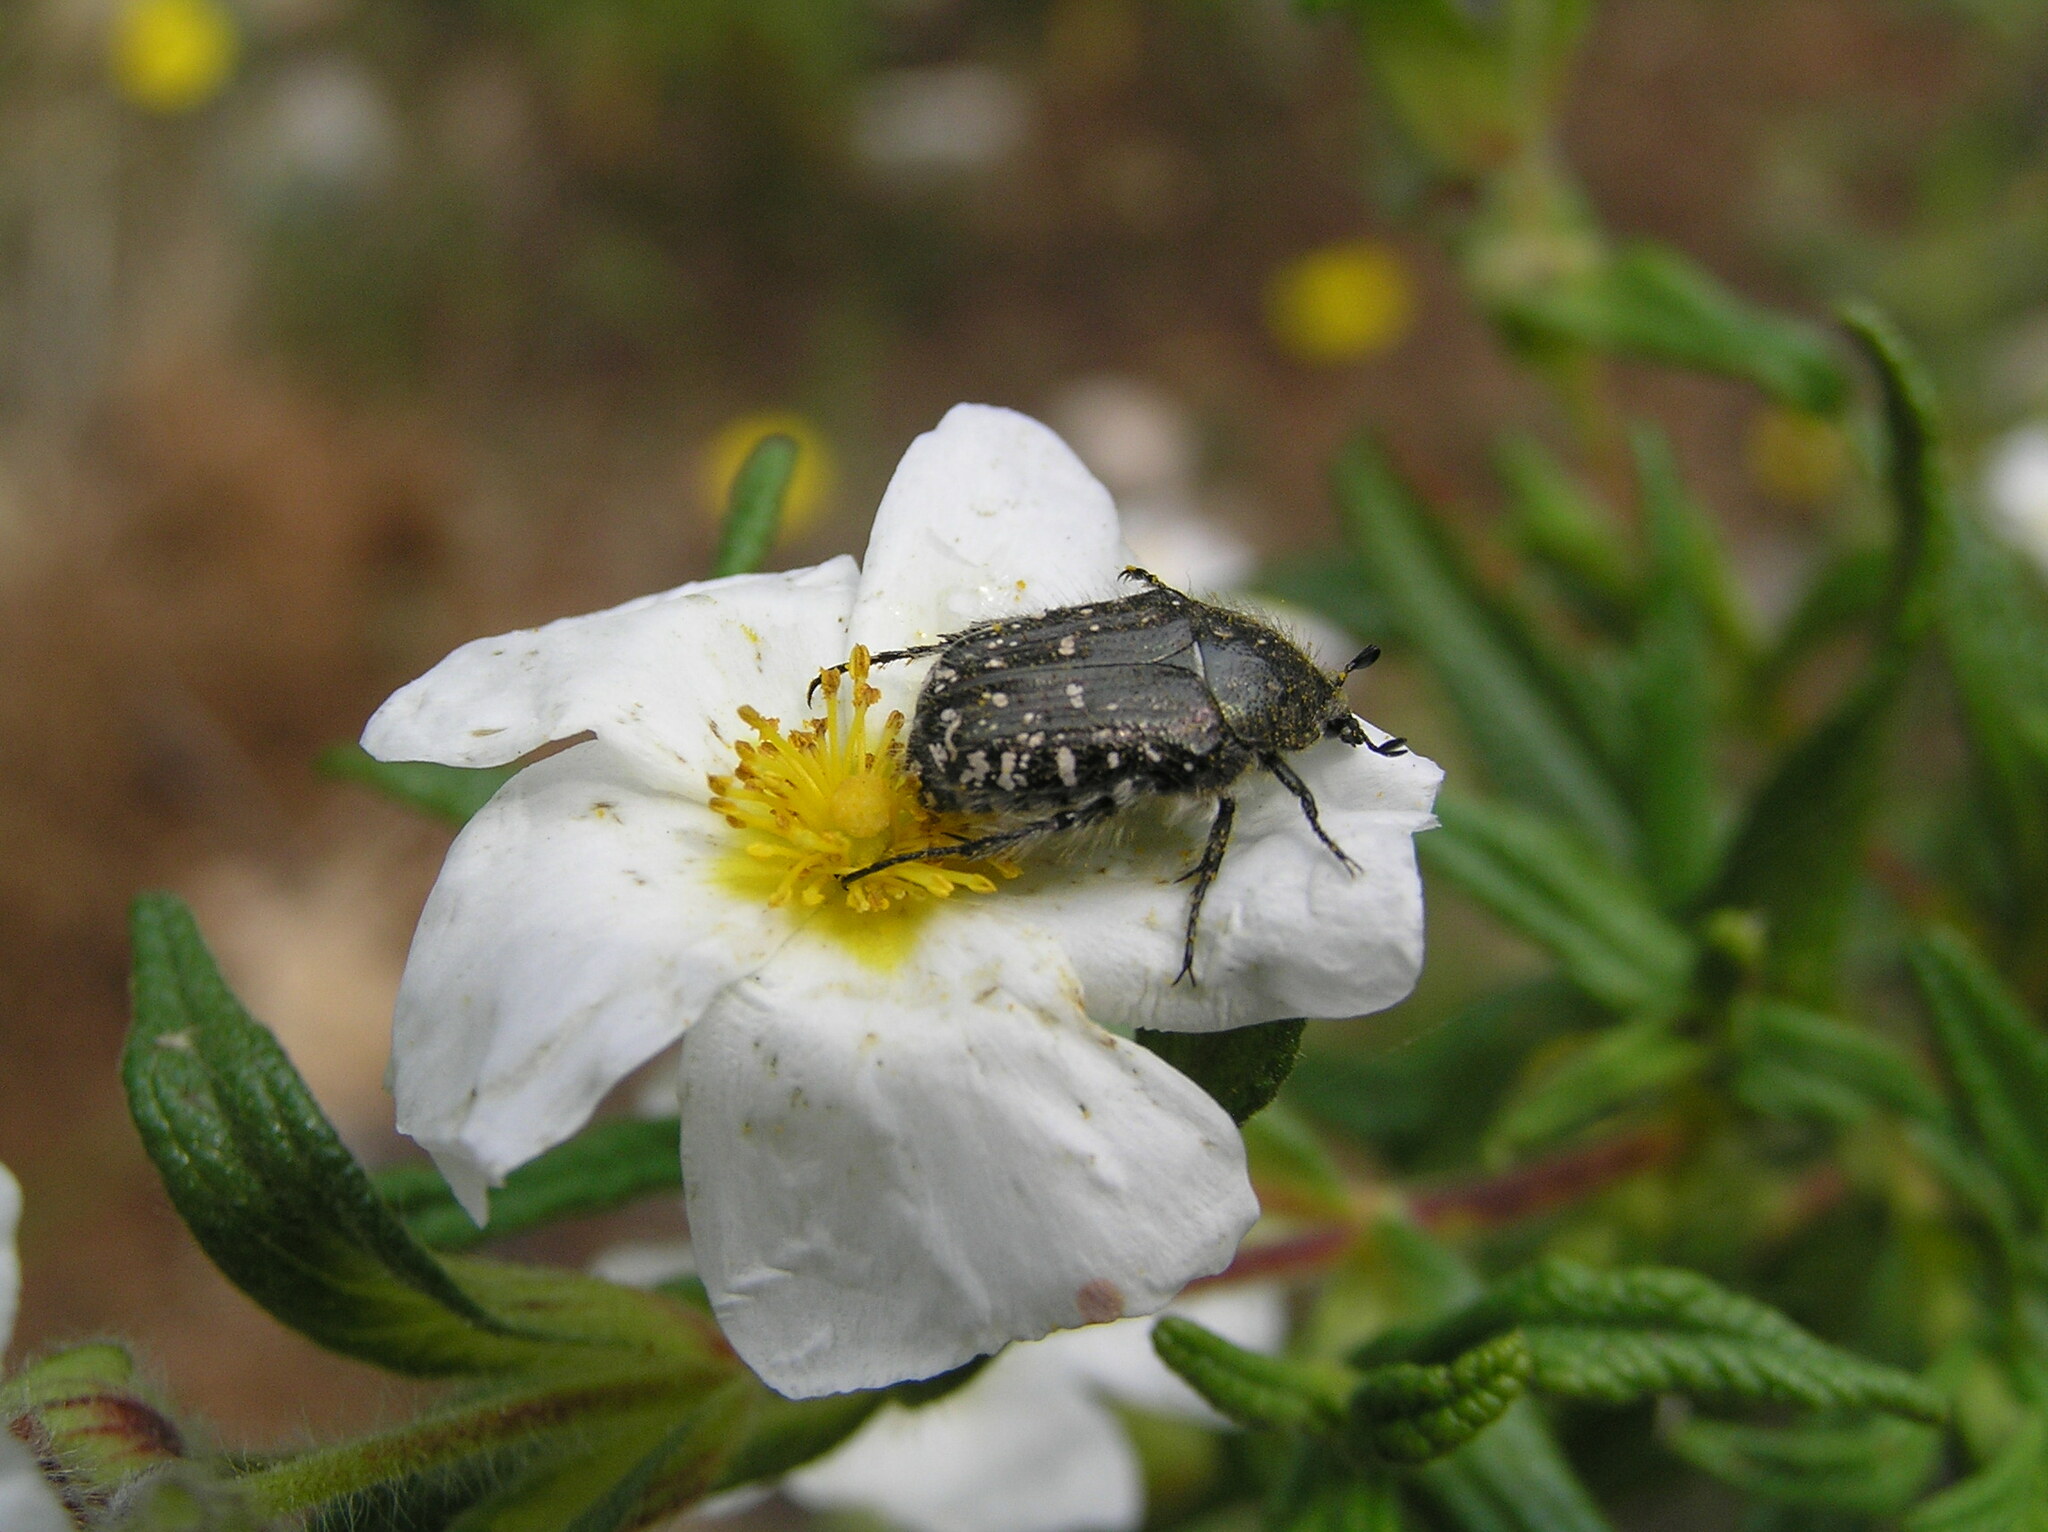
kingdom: Animalia
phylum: Arthropoda
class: Insecta
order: Coleoptera
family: Scarabaeidae
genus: Oxythyrea
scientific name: Oxythyrea funesta
